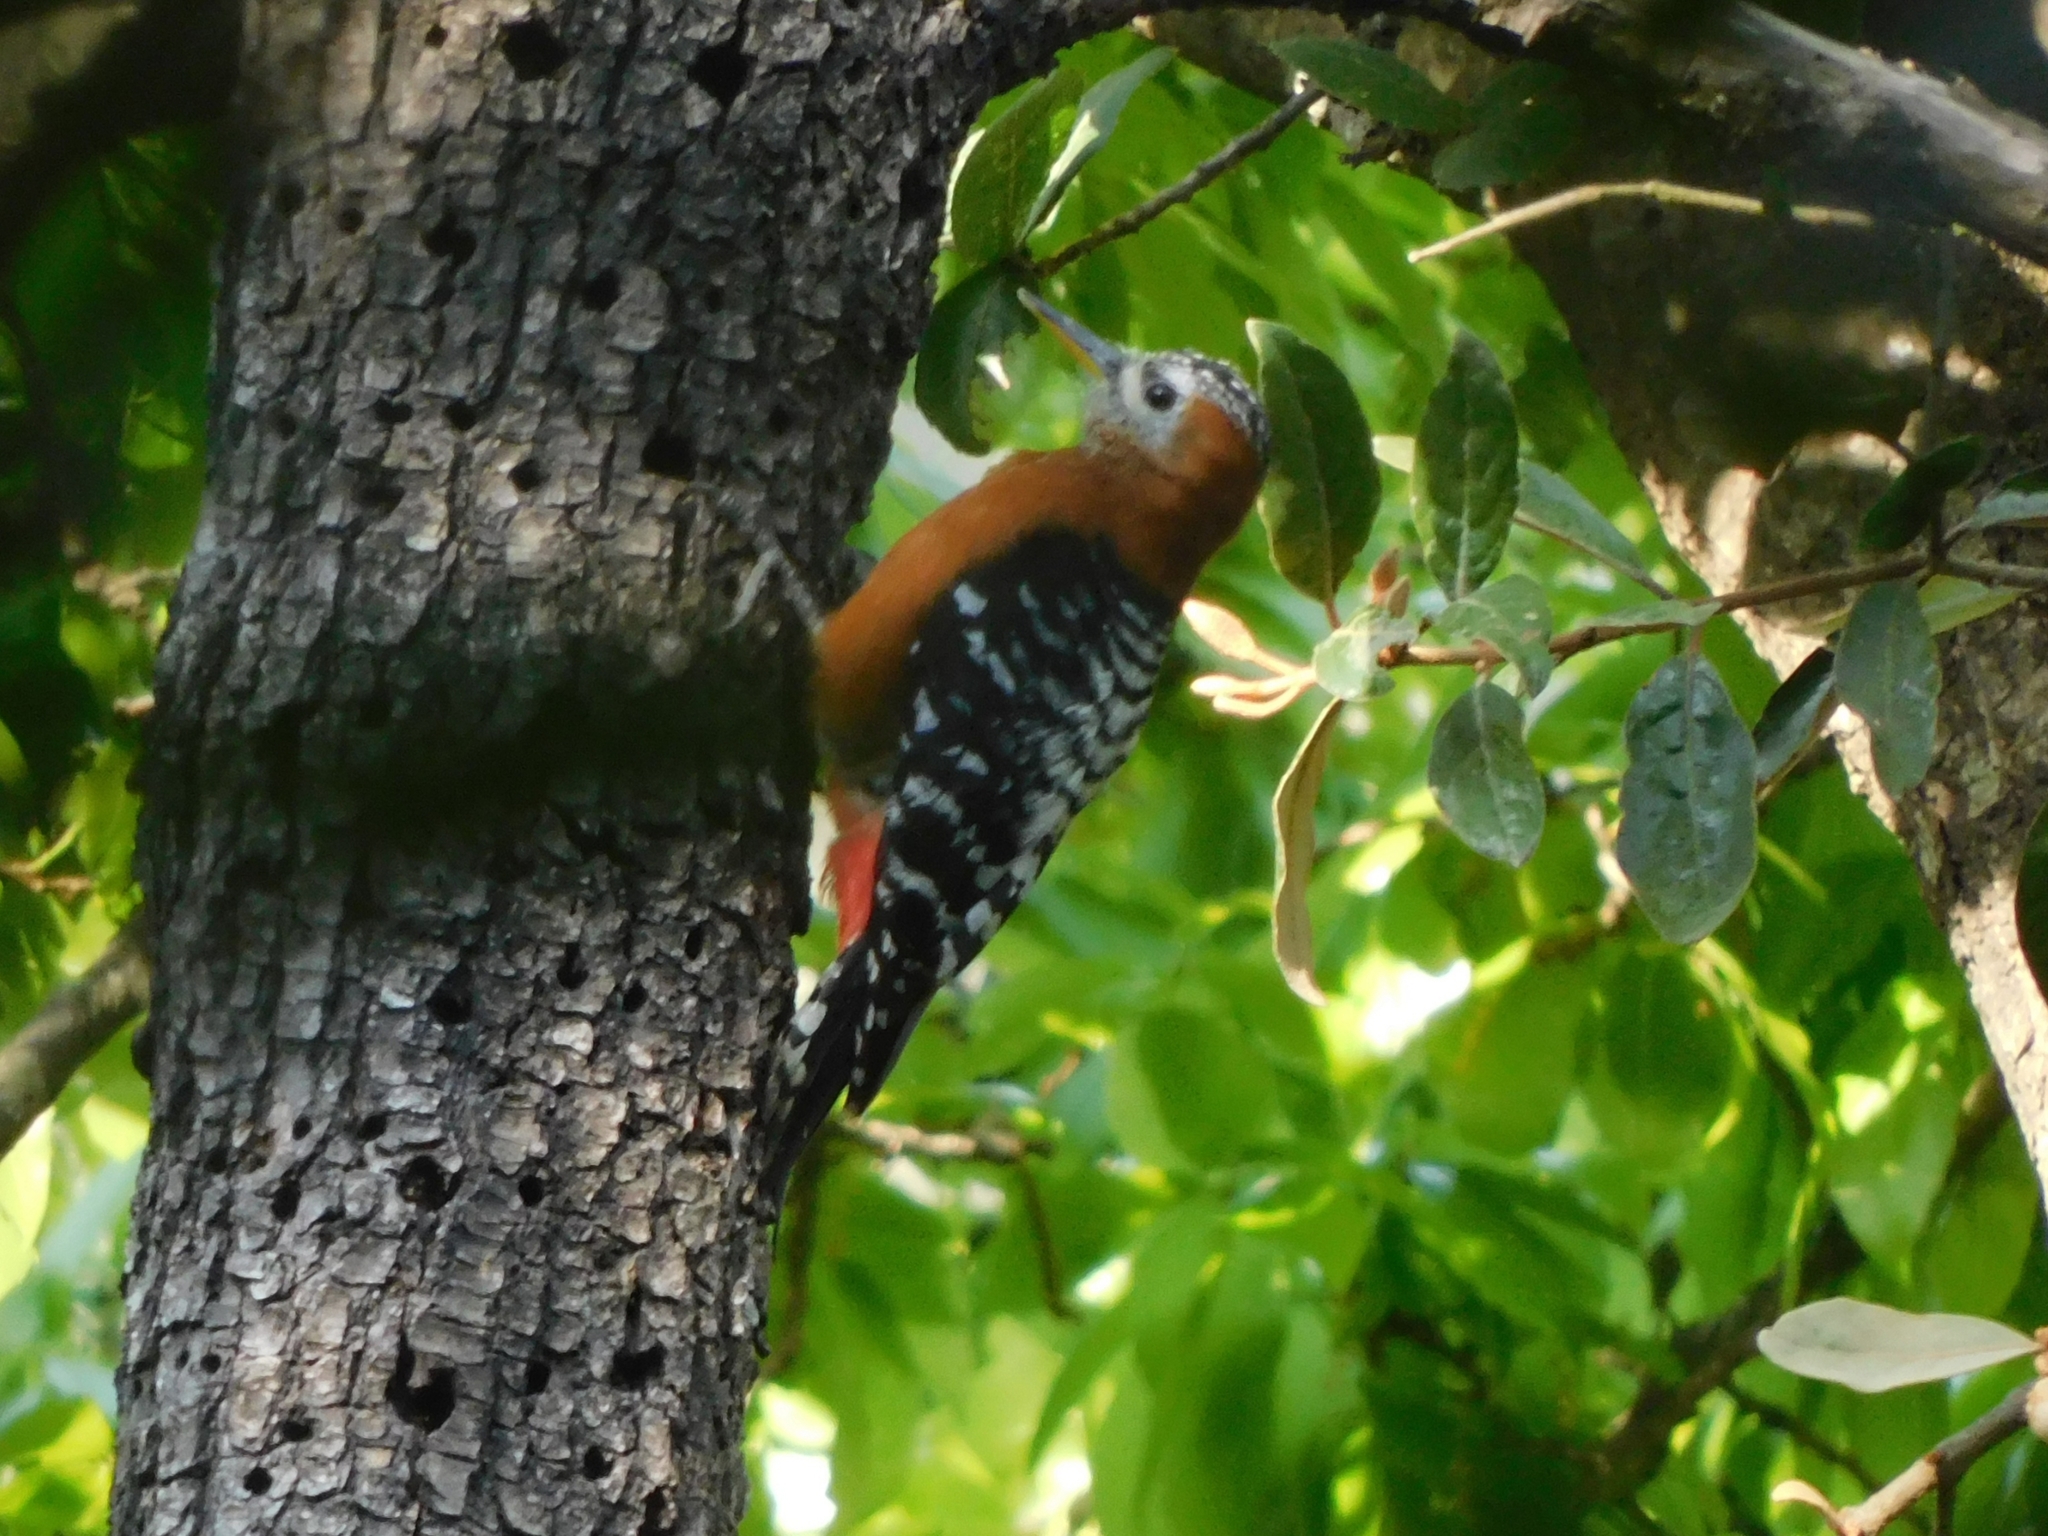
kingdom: Animalia
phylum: Chordata
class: Aves
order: Piciformes
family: Picidae
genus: Dendrocopos
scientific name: Dendrocopos hyperythrus
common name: Rufous-bellied woodpecker
